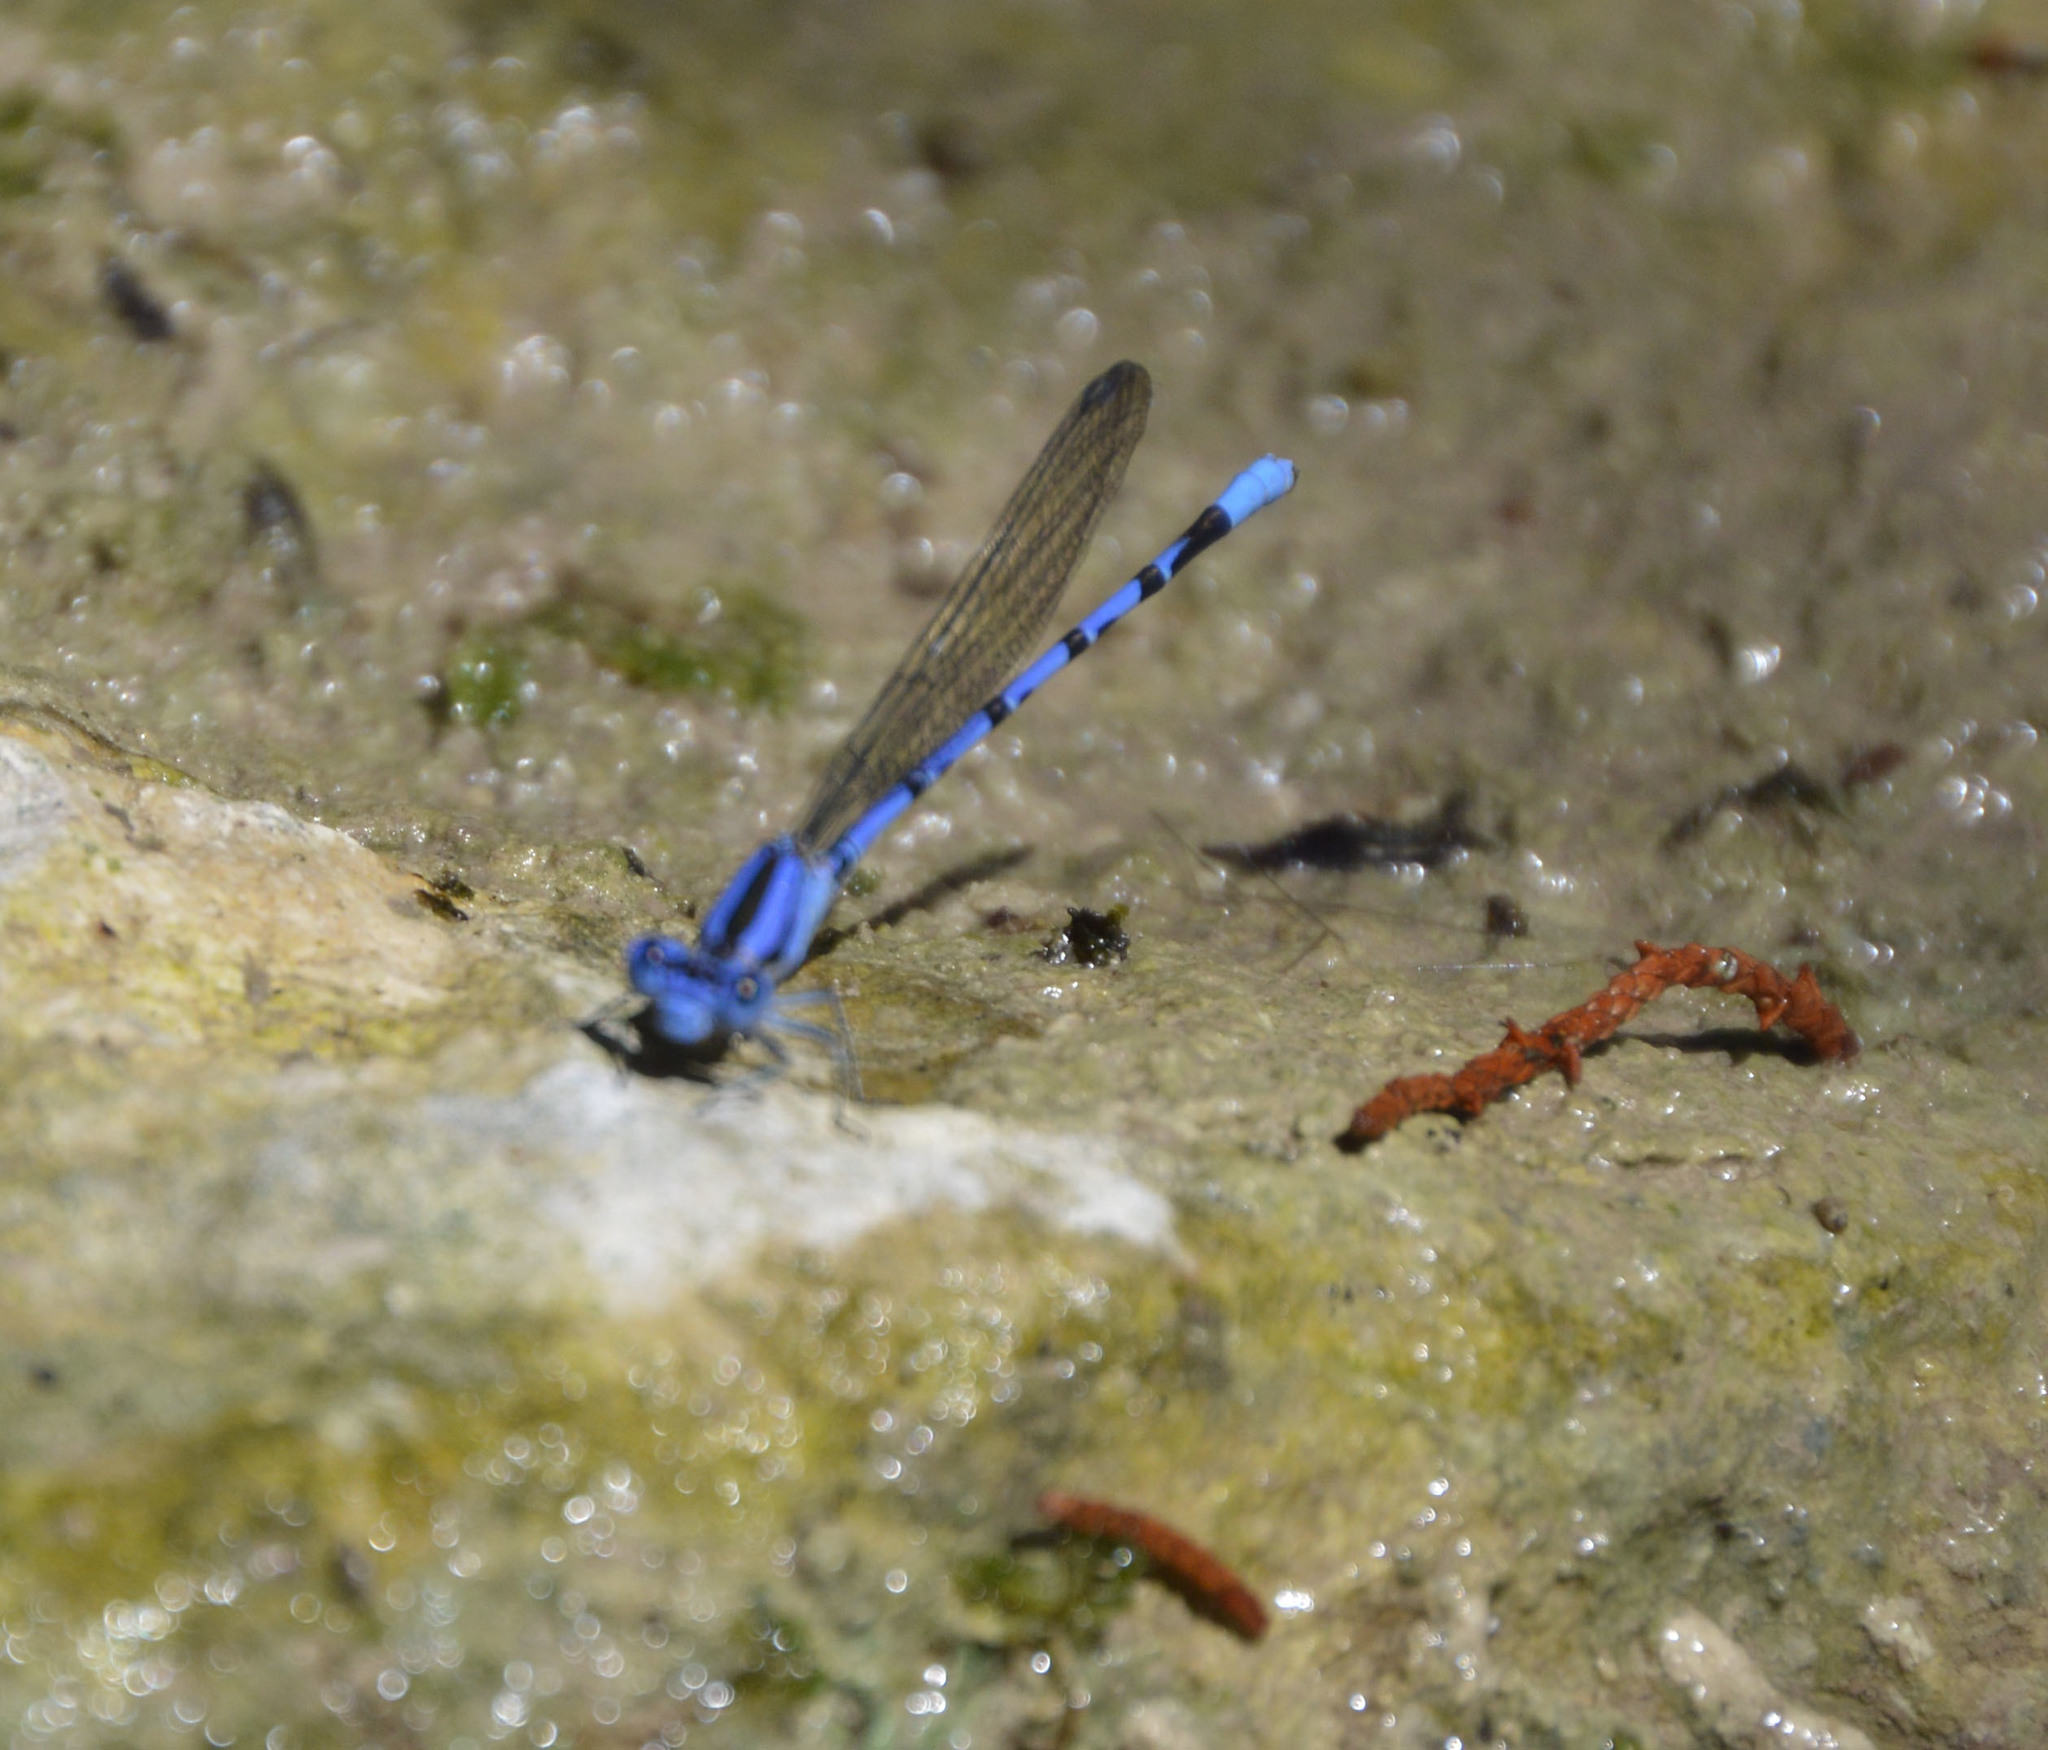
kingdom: Animalia
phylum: Arthropoda
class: Insecta
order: Odonata
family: Coenagrionidae
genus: Argia
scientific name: Argia funebris
